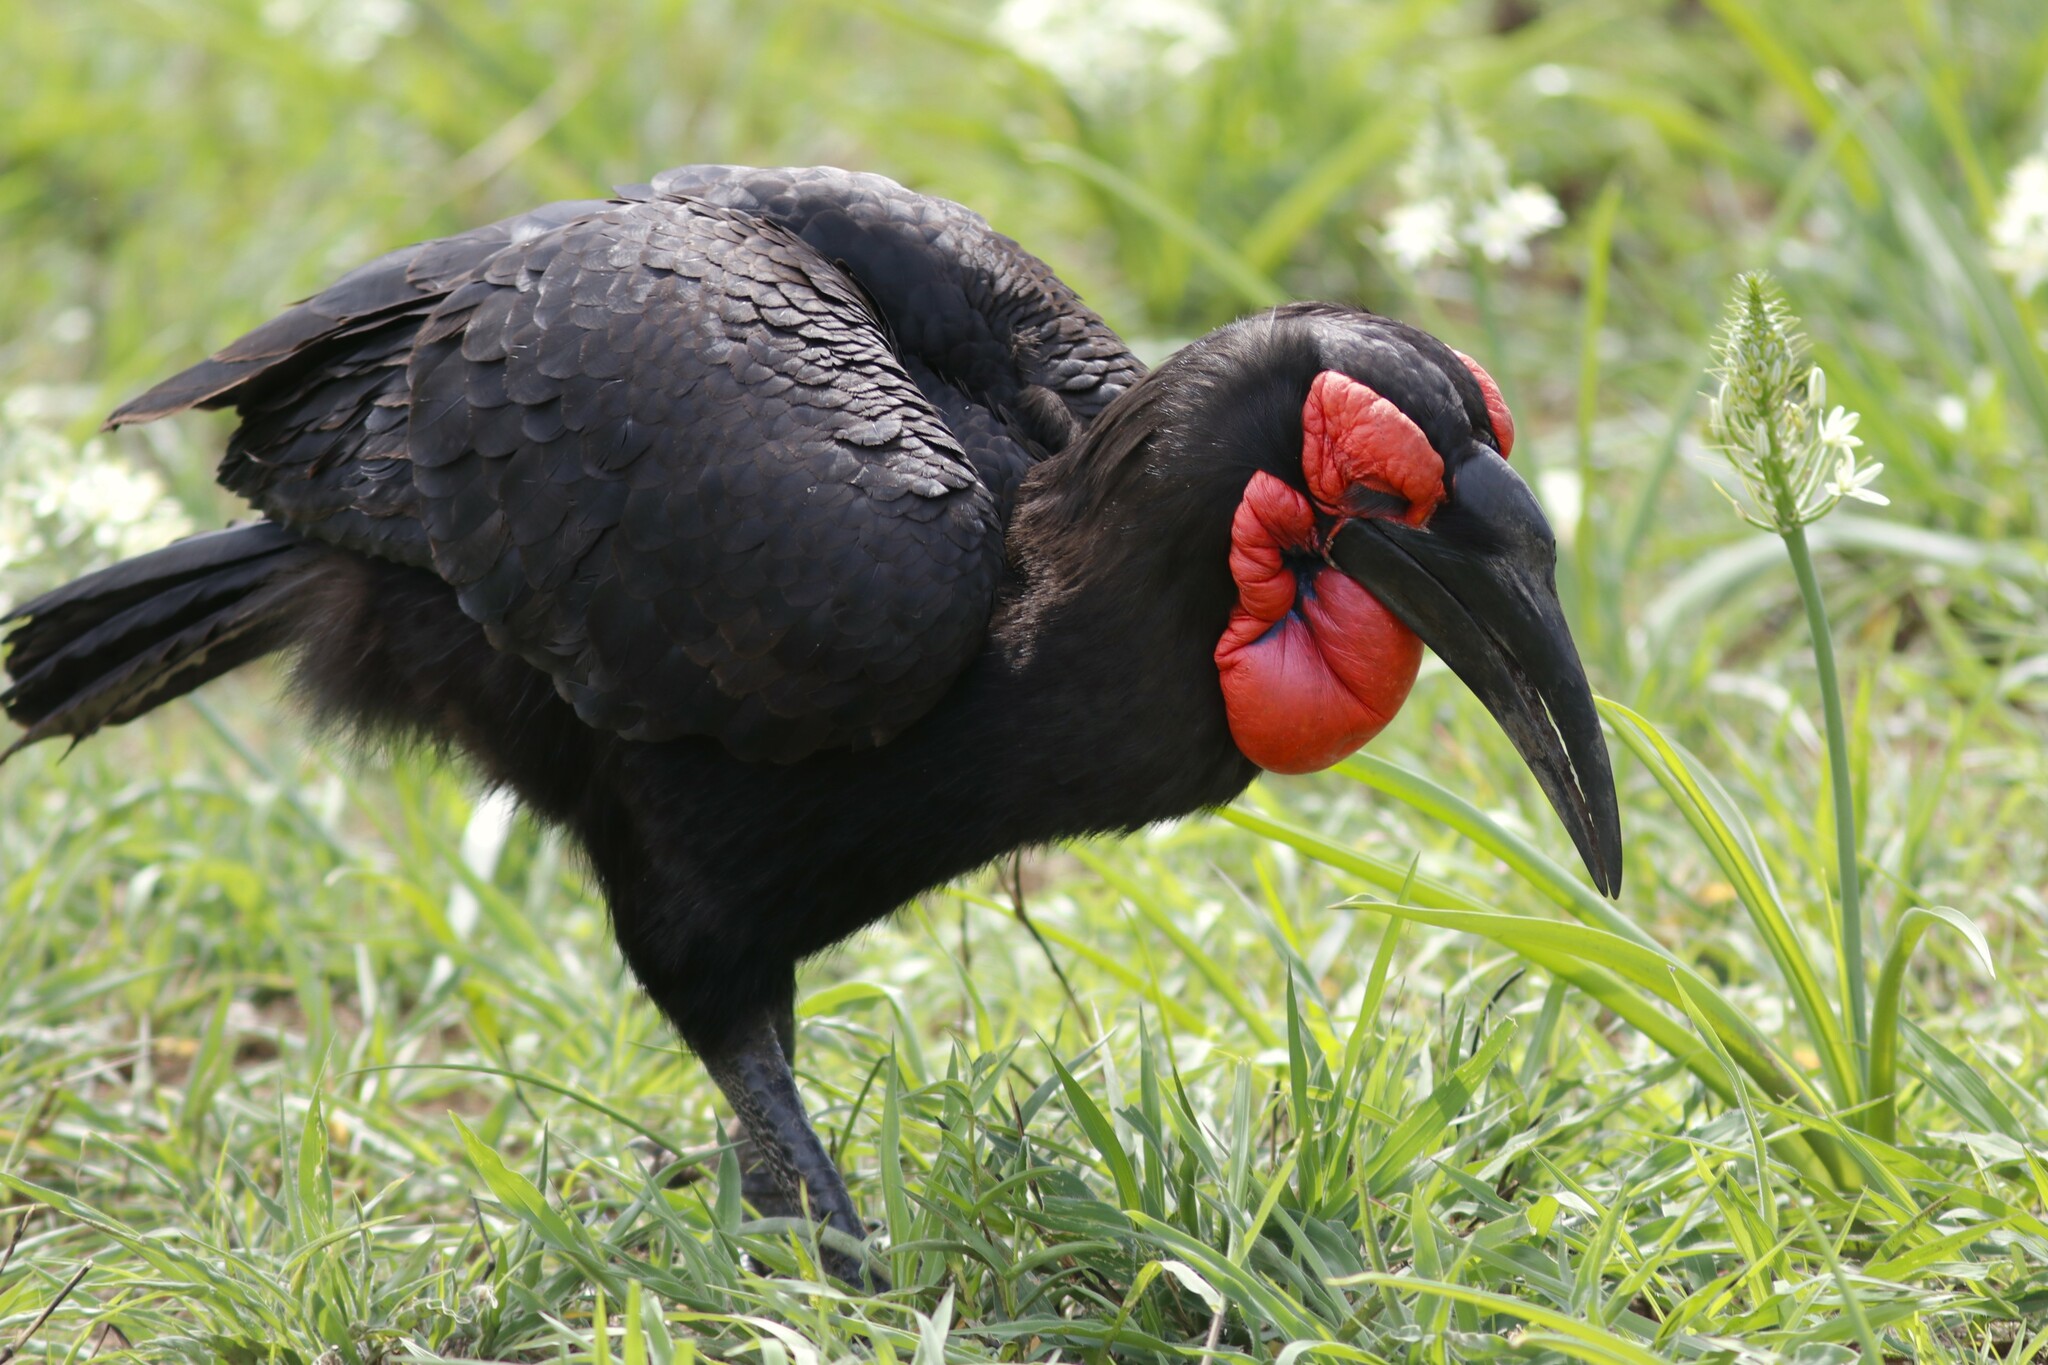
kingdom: Animalia
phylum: Chordata
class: Aves
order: Bucerotiformes
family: Bucorvidae
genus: Bucorvus
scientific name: Bucorvus leadbeateri
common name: Southern ground-hornbill
